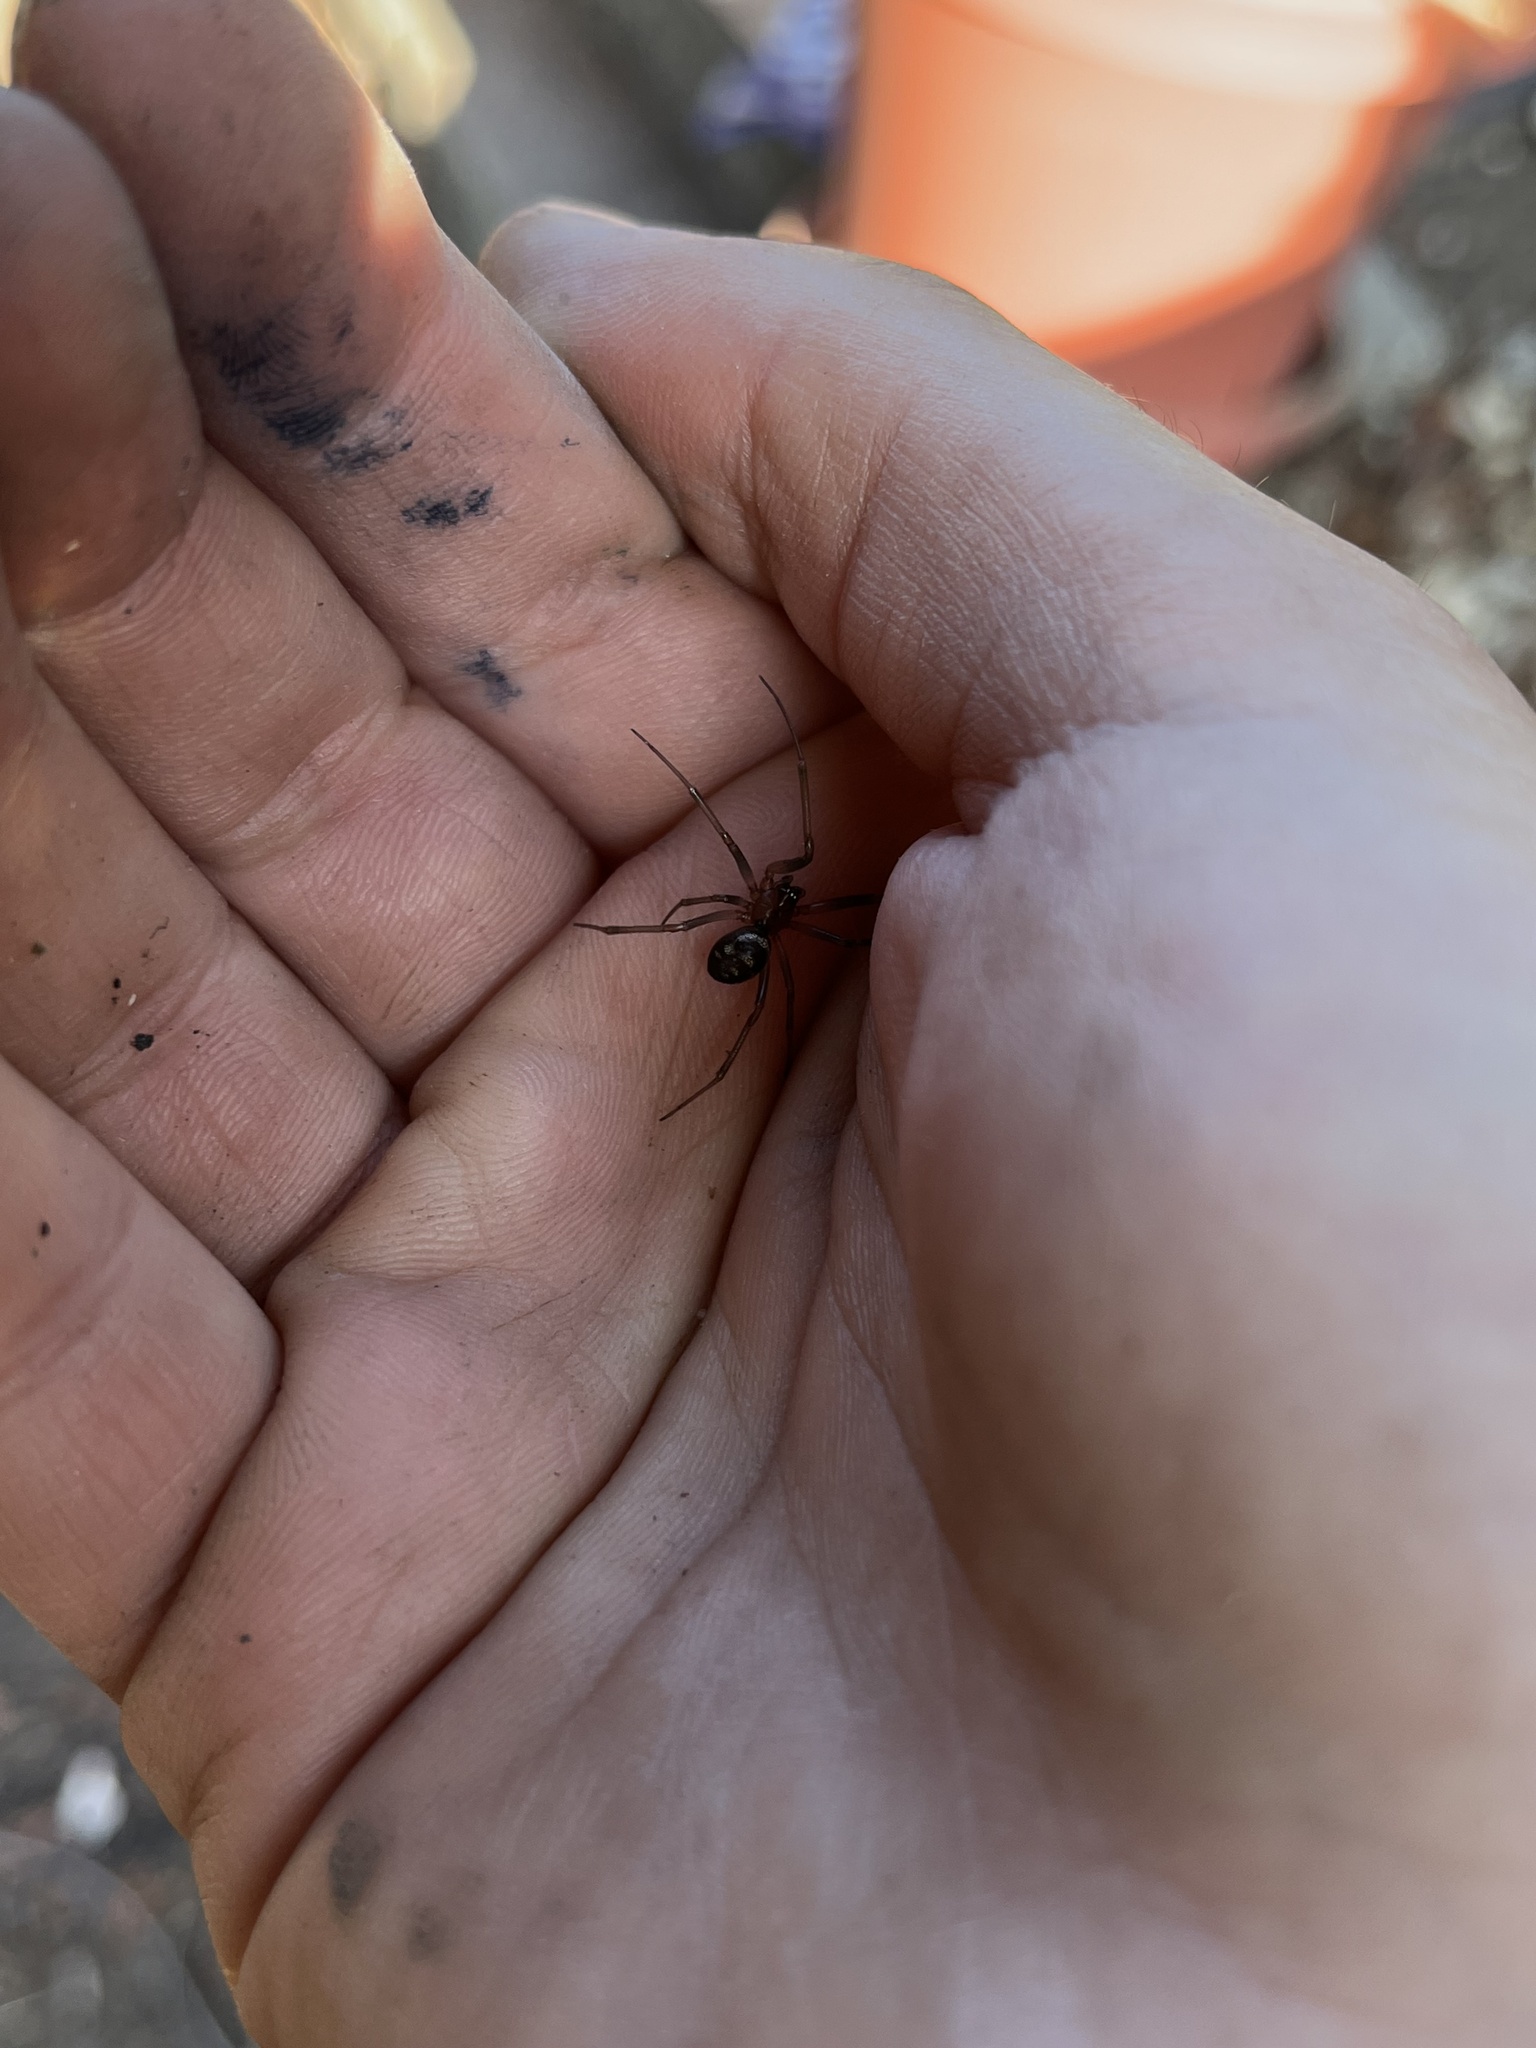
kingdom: Animalia
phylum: Arthropoda
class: Arachnida
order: Araneae
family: Theridiidae
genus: Steatoda
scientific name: Steatoda grossa
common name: False black widow
